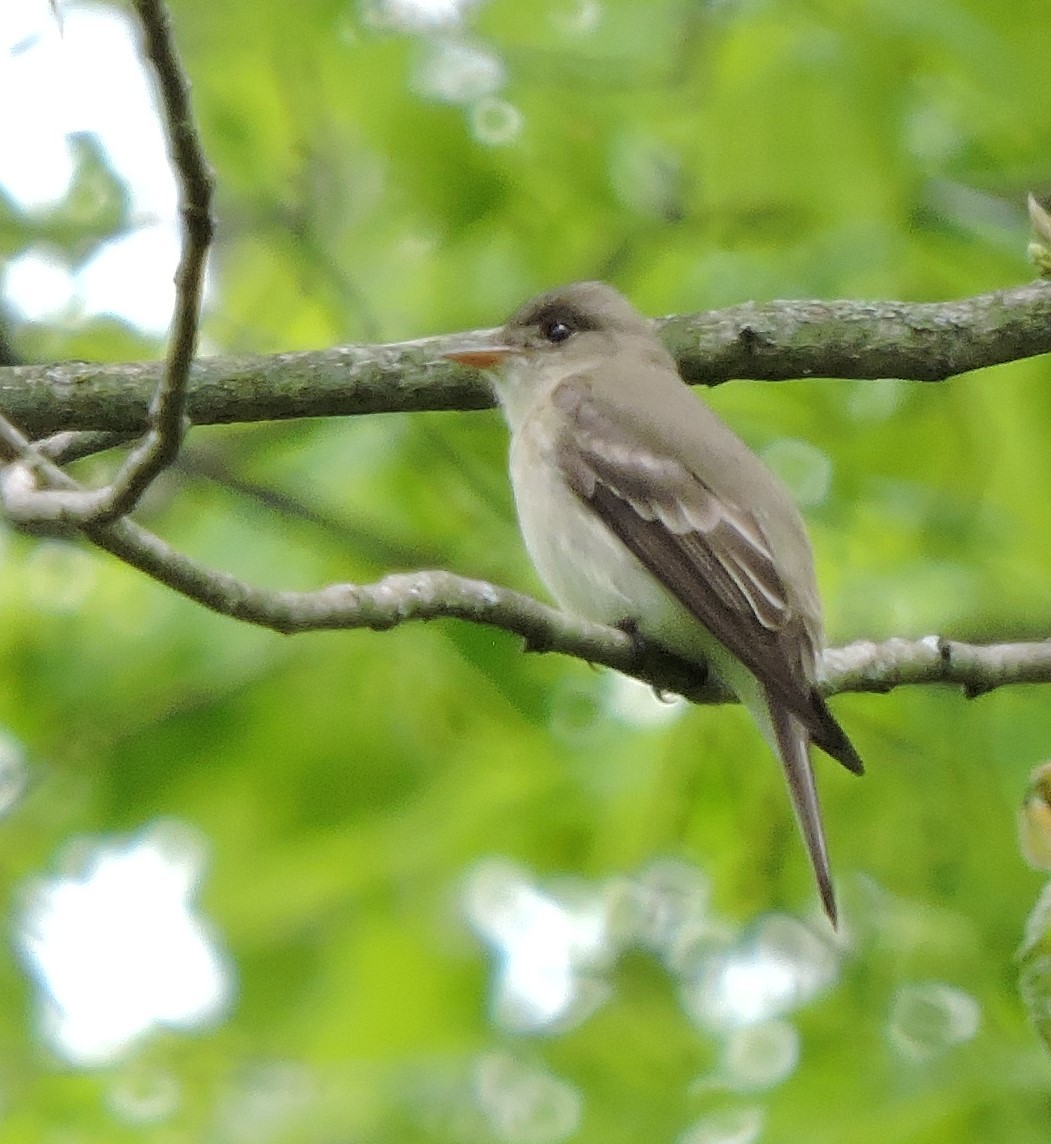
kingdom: Animalia
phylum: Chordata
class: Aves
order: Passeriformes
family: Tyrannidae
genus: Contopus
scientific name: Contopus virens
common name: Eastern wood-pewee
